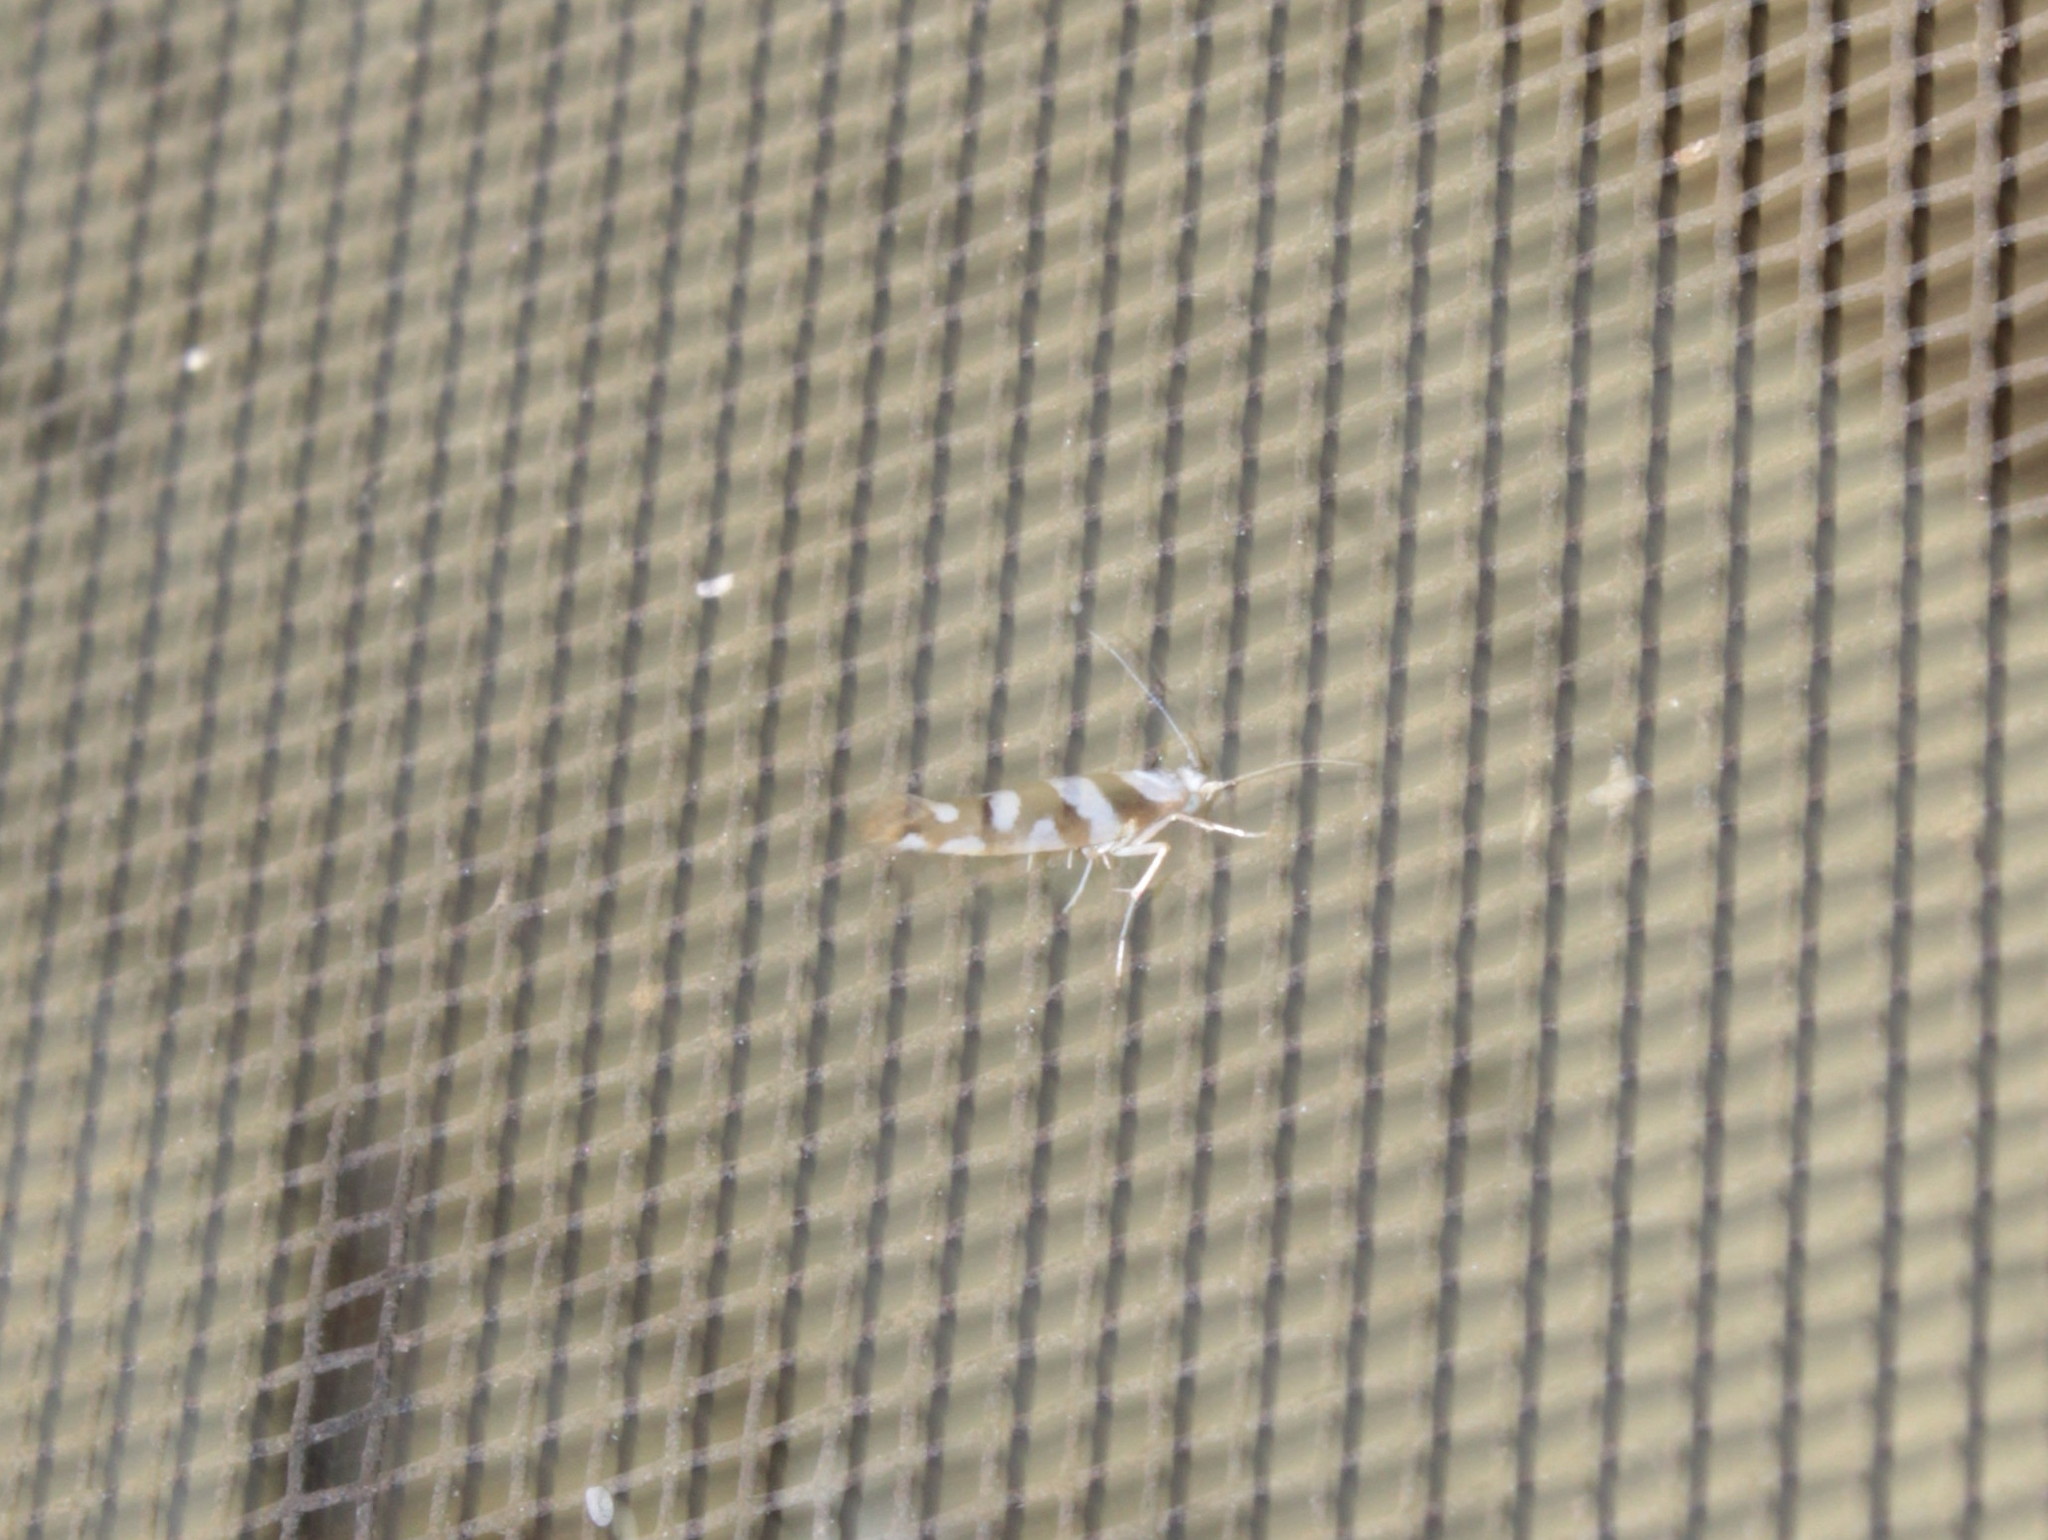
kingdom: Animalia
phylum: Arthropoda
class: Insecta
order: Lepidoptera
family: Argyresthiidae
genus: Argyresthia
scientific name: Argyresthia calliphanes
